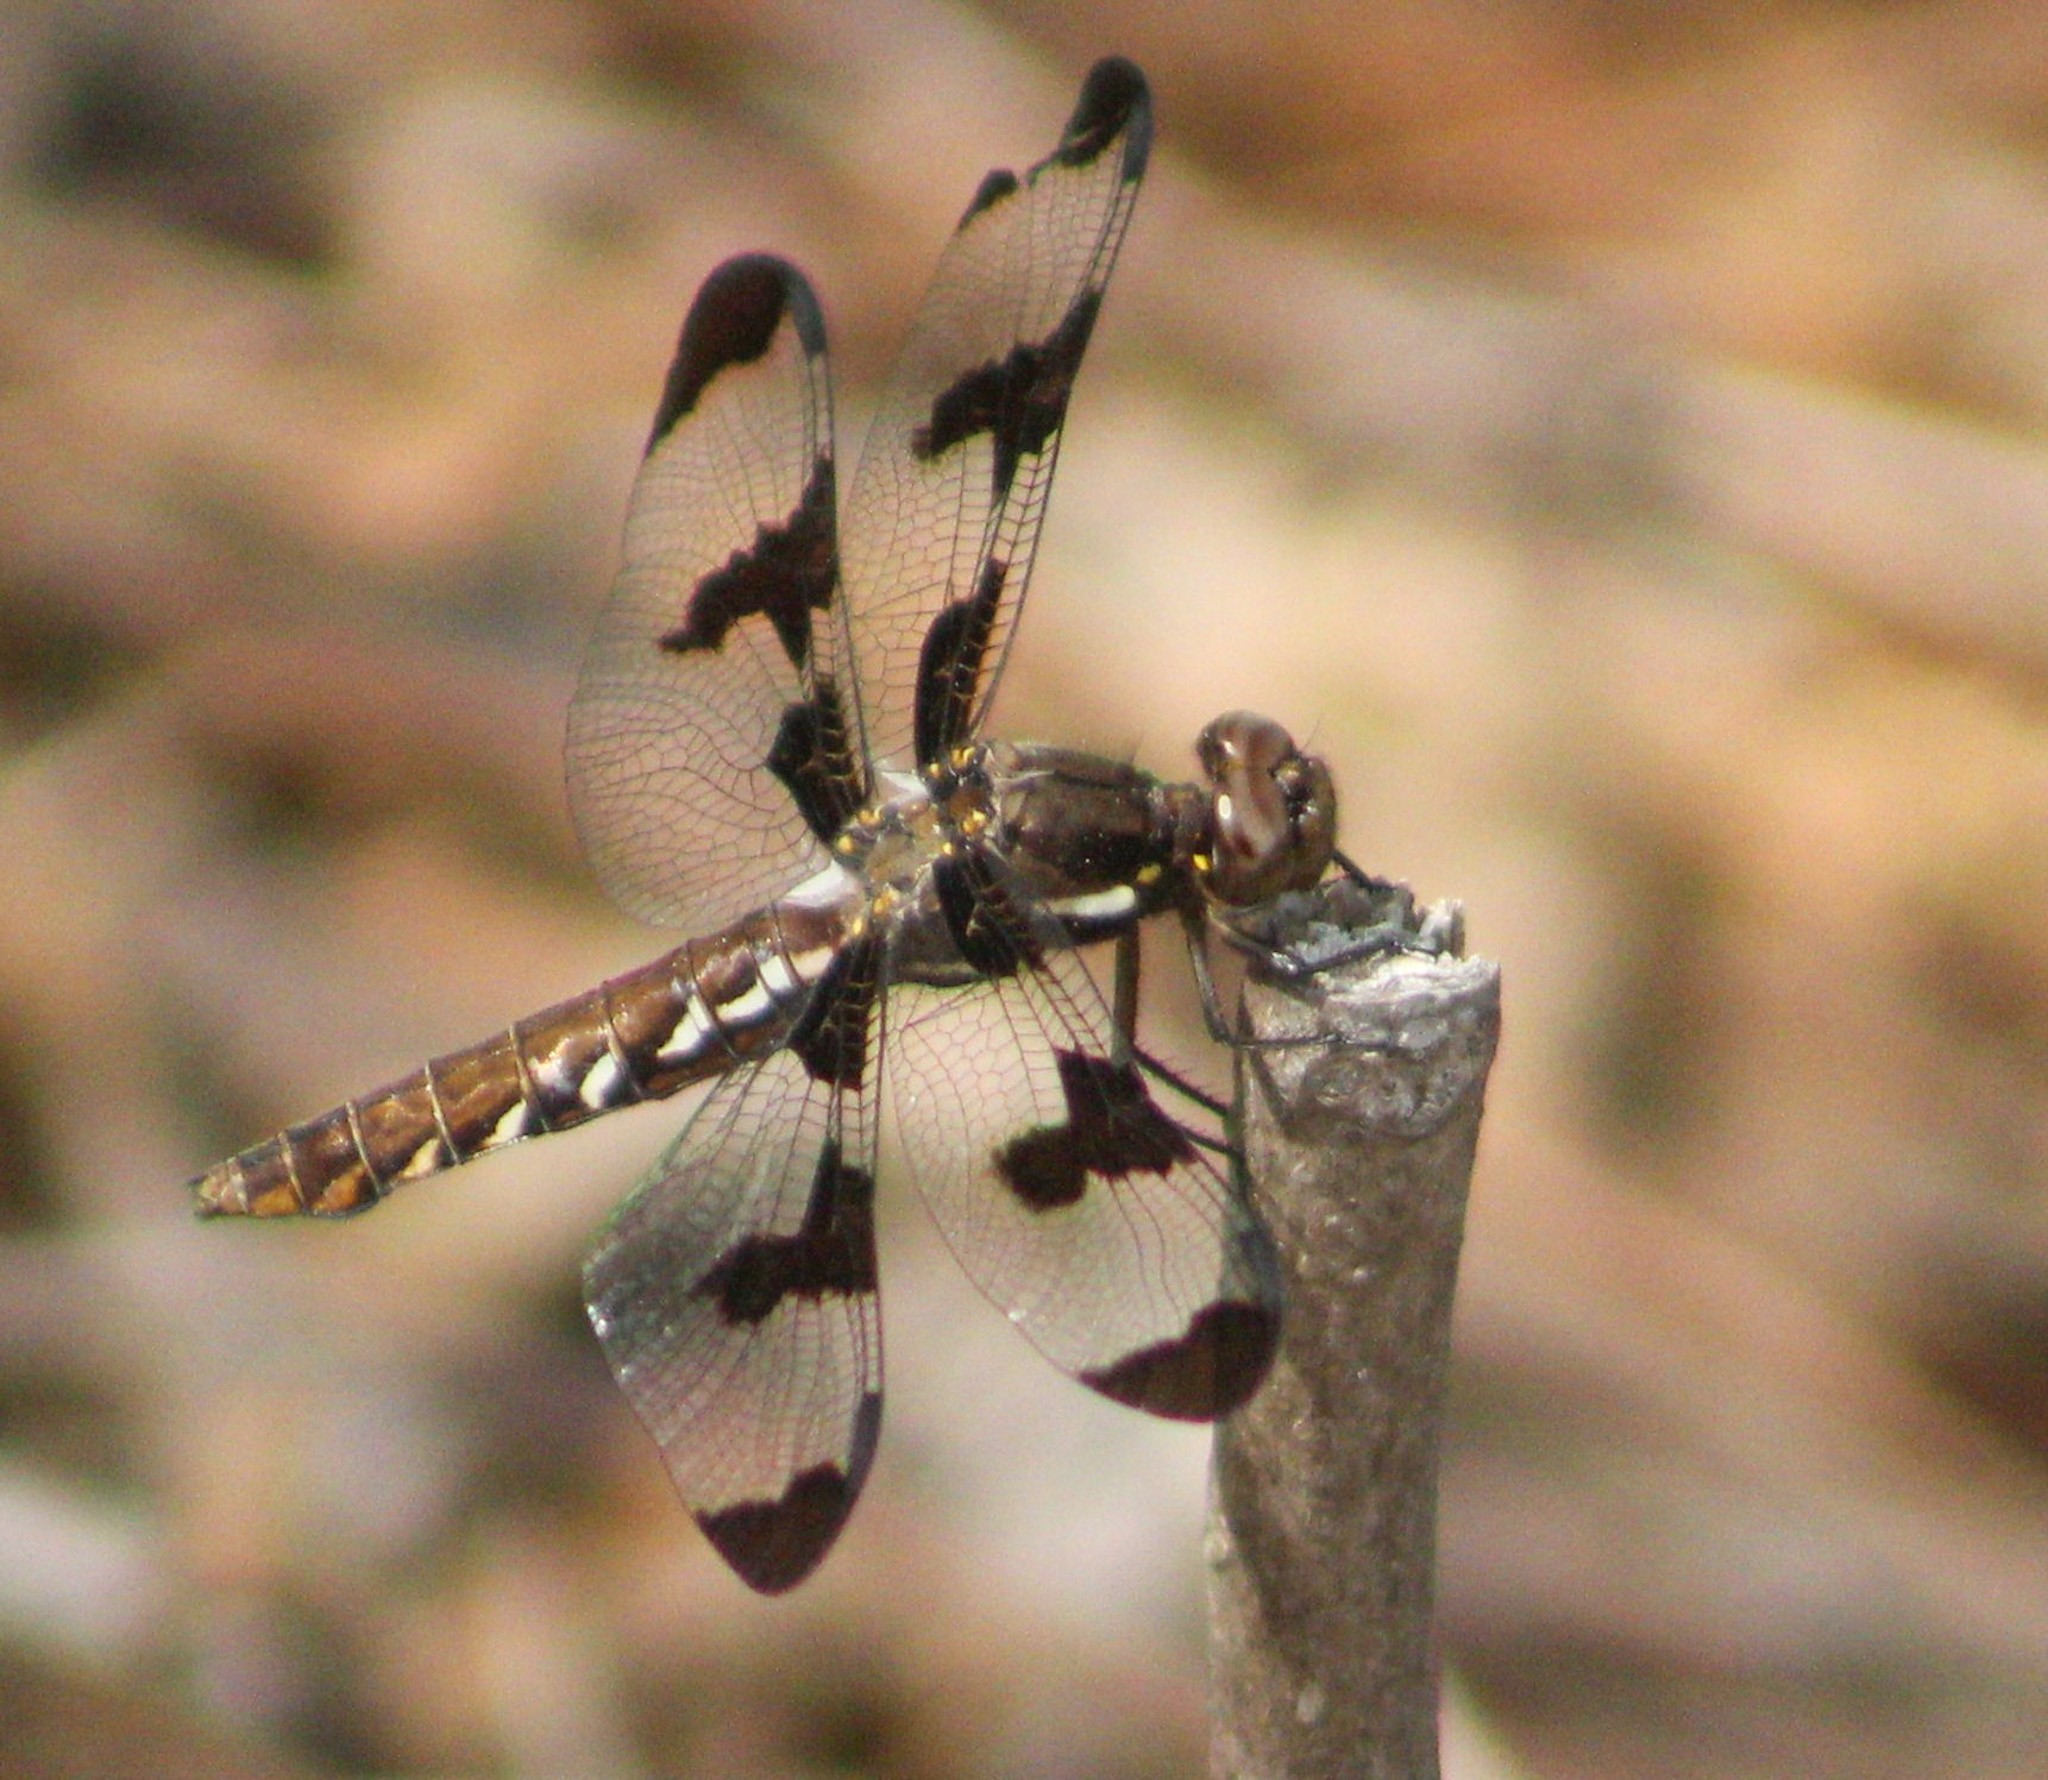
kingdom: Animalia
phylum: Arthropoda
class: Insecta
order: Odonata
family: Libellulidae
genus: Plathemis
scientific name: Plathemis lydia
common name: Common whitetail
